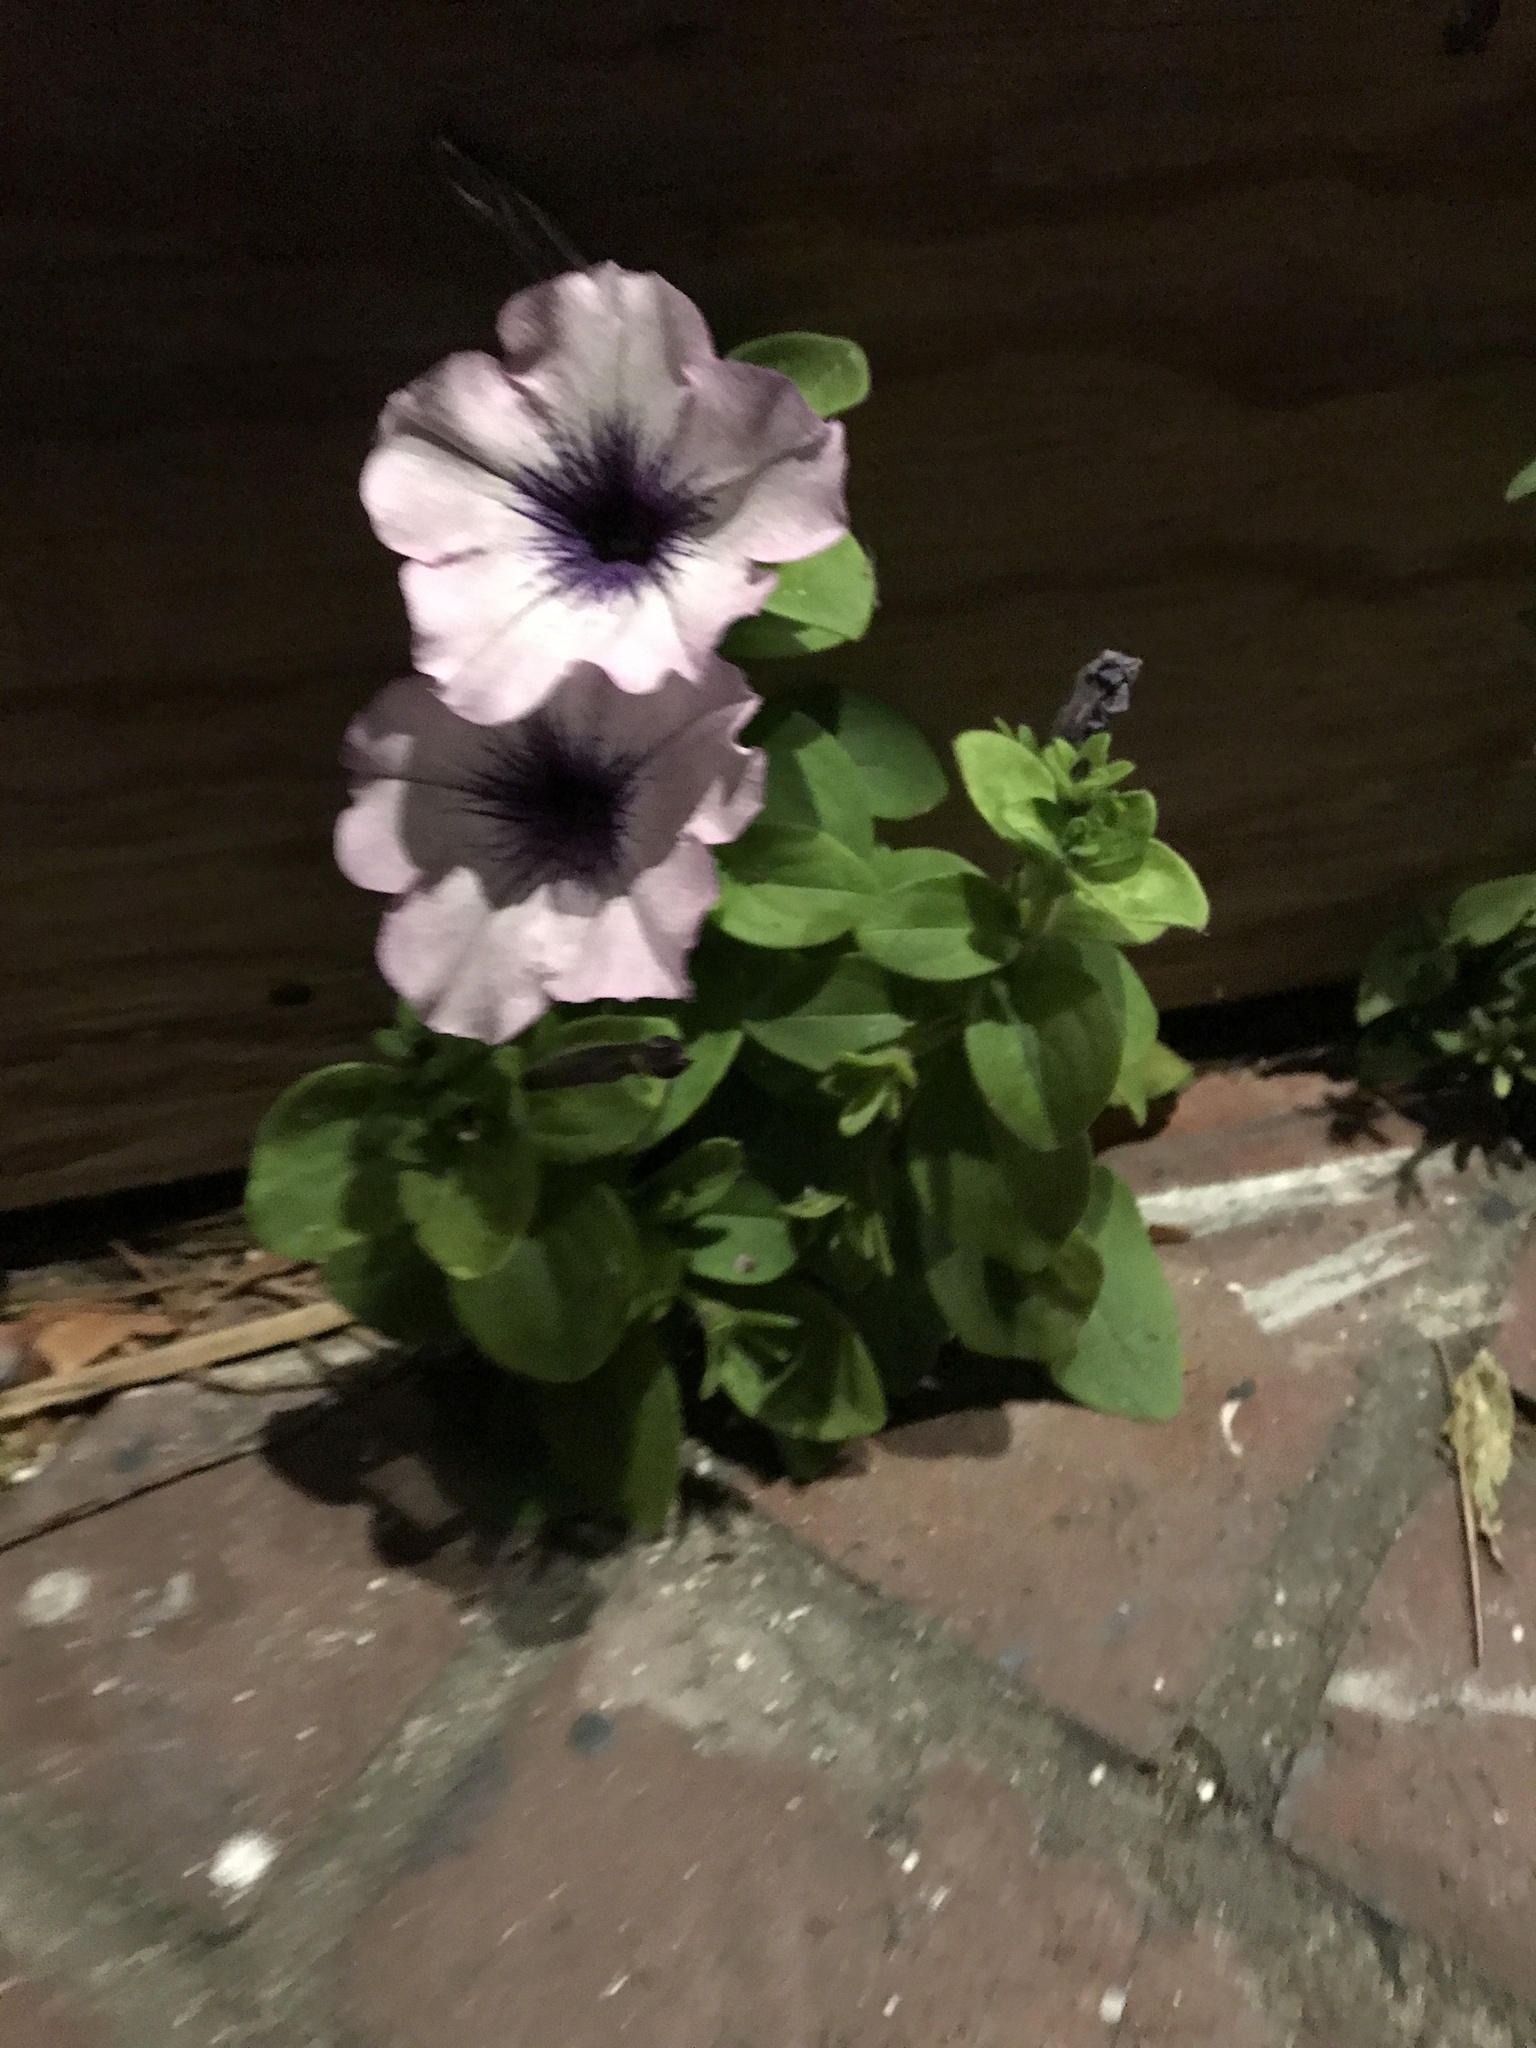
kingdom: Plantae
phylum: Tracheophyta
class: Magnoliopsida
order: Solanales
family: Solanaceae
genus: Petunia
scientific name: Petunia atkinsiana
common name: Petunia
